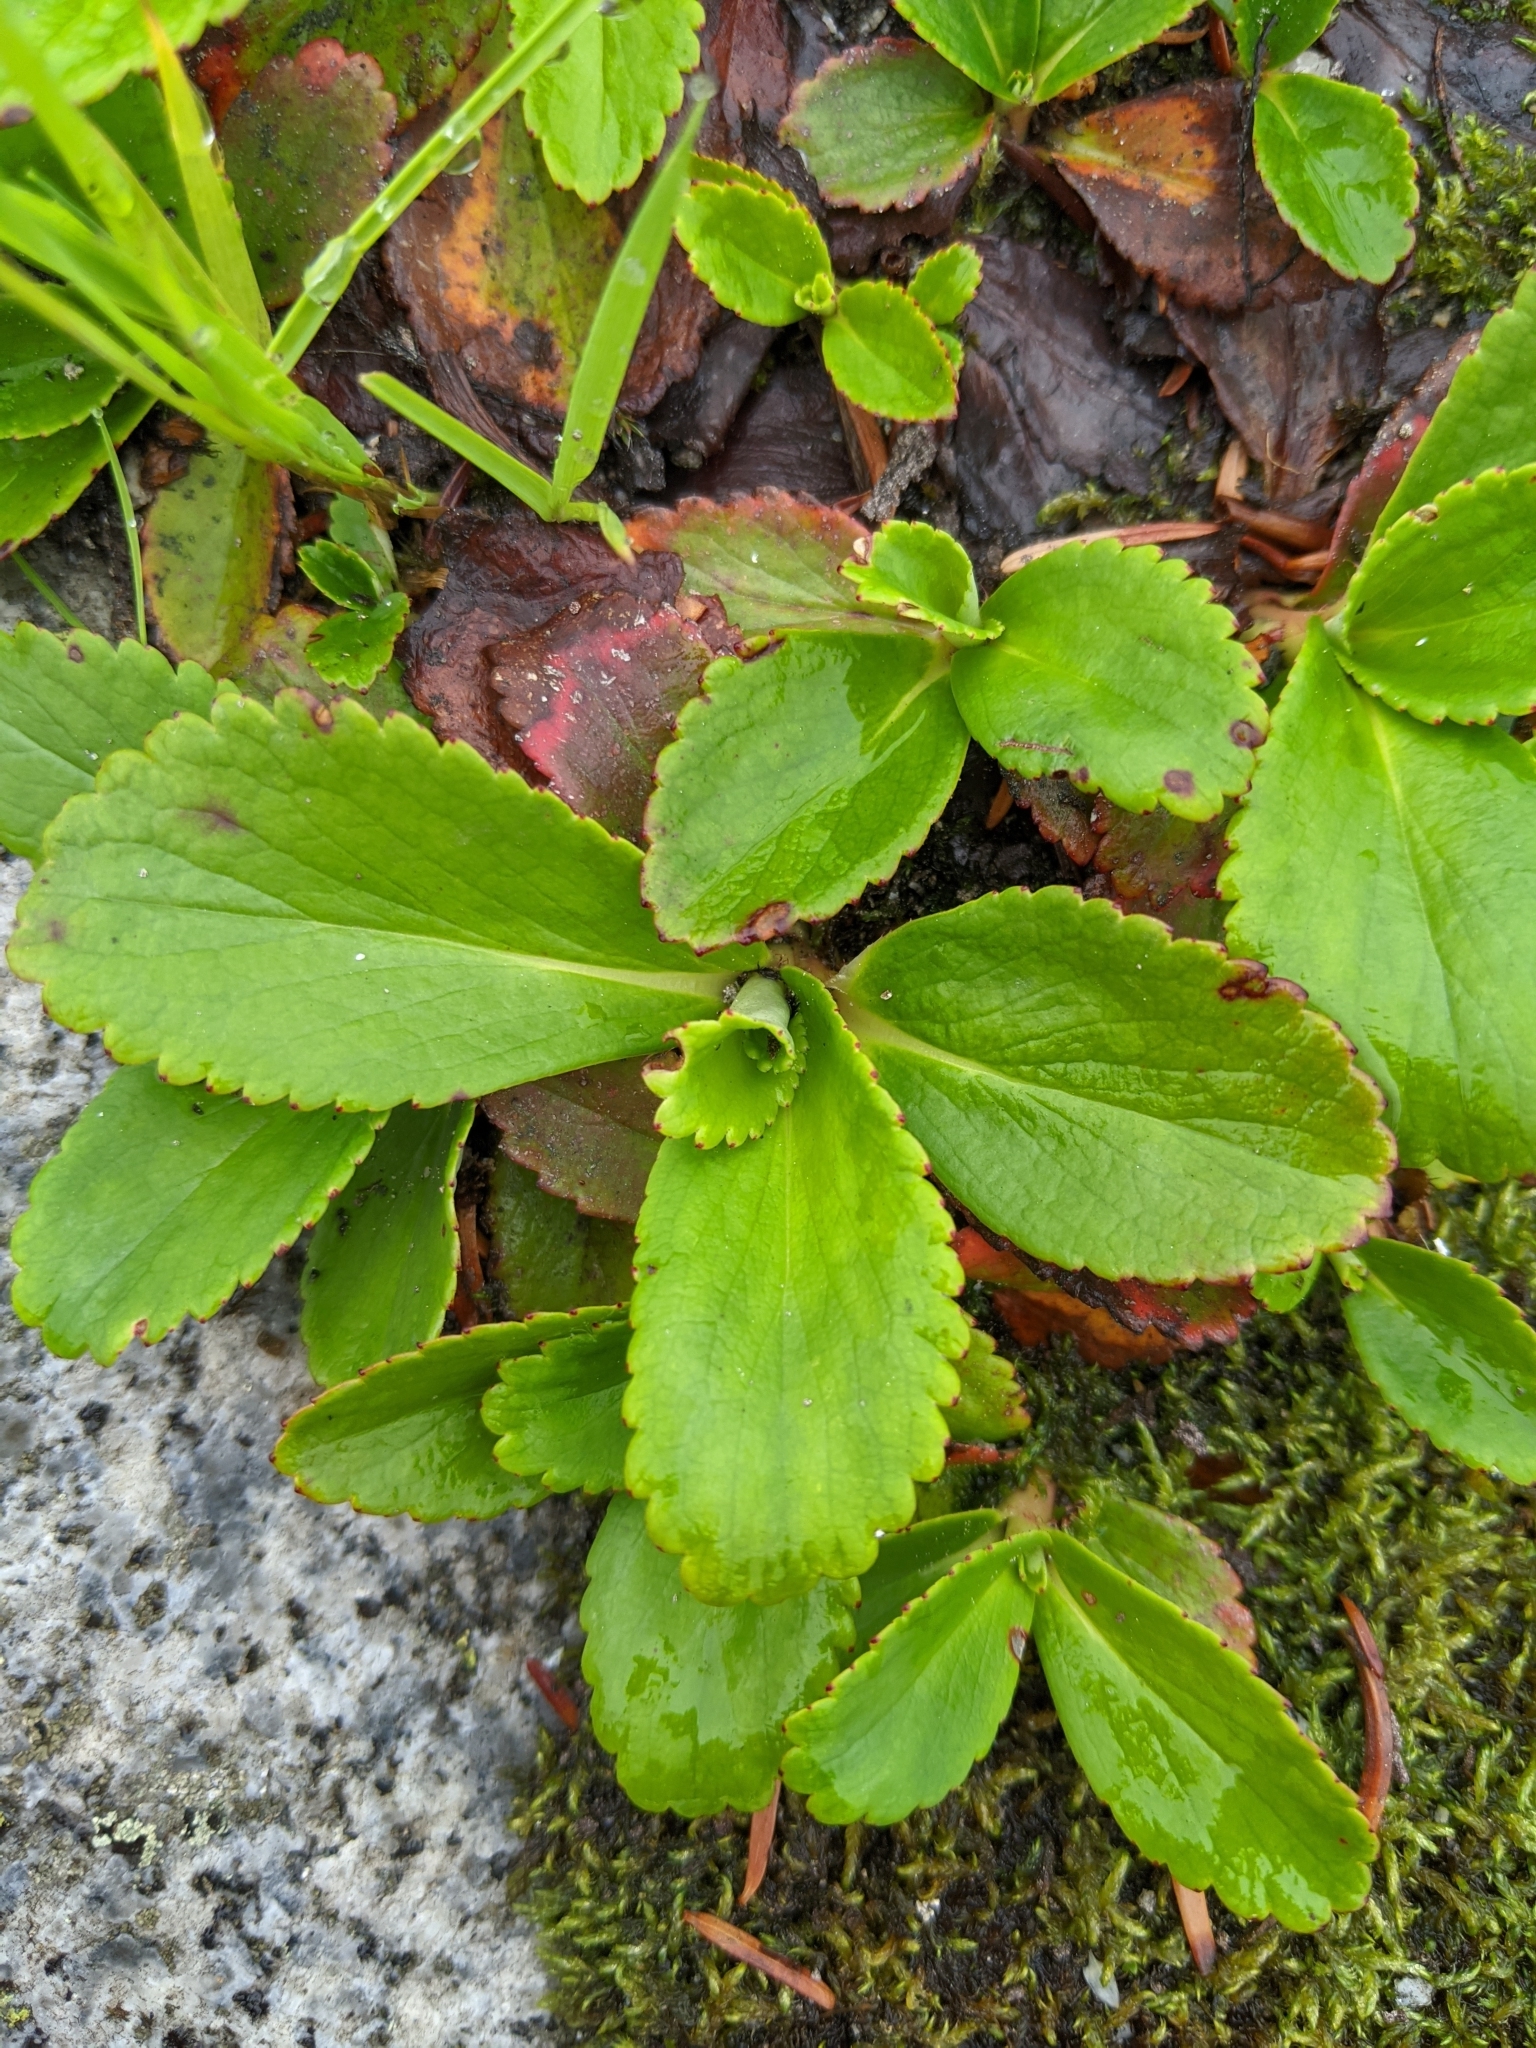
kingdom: Plantae
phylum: Tracheophyta
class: Magnoliopsida
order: Saxifragales
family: Saxifragaceae
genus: Leptarrhena
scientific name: Leptarrhena pyrolifolia
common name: Leatherleaf-saxifrage
